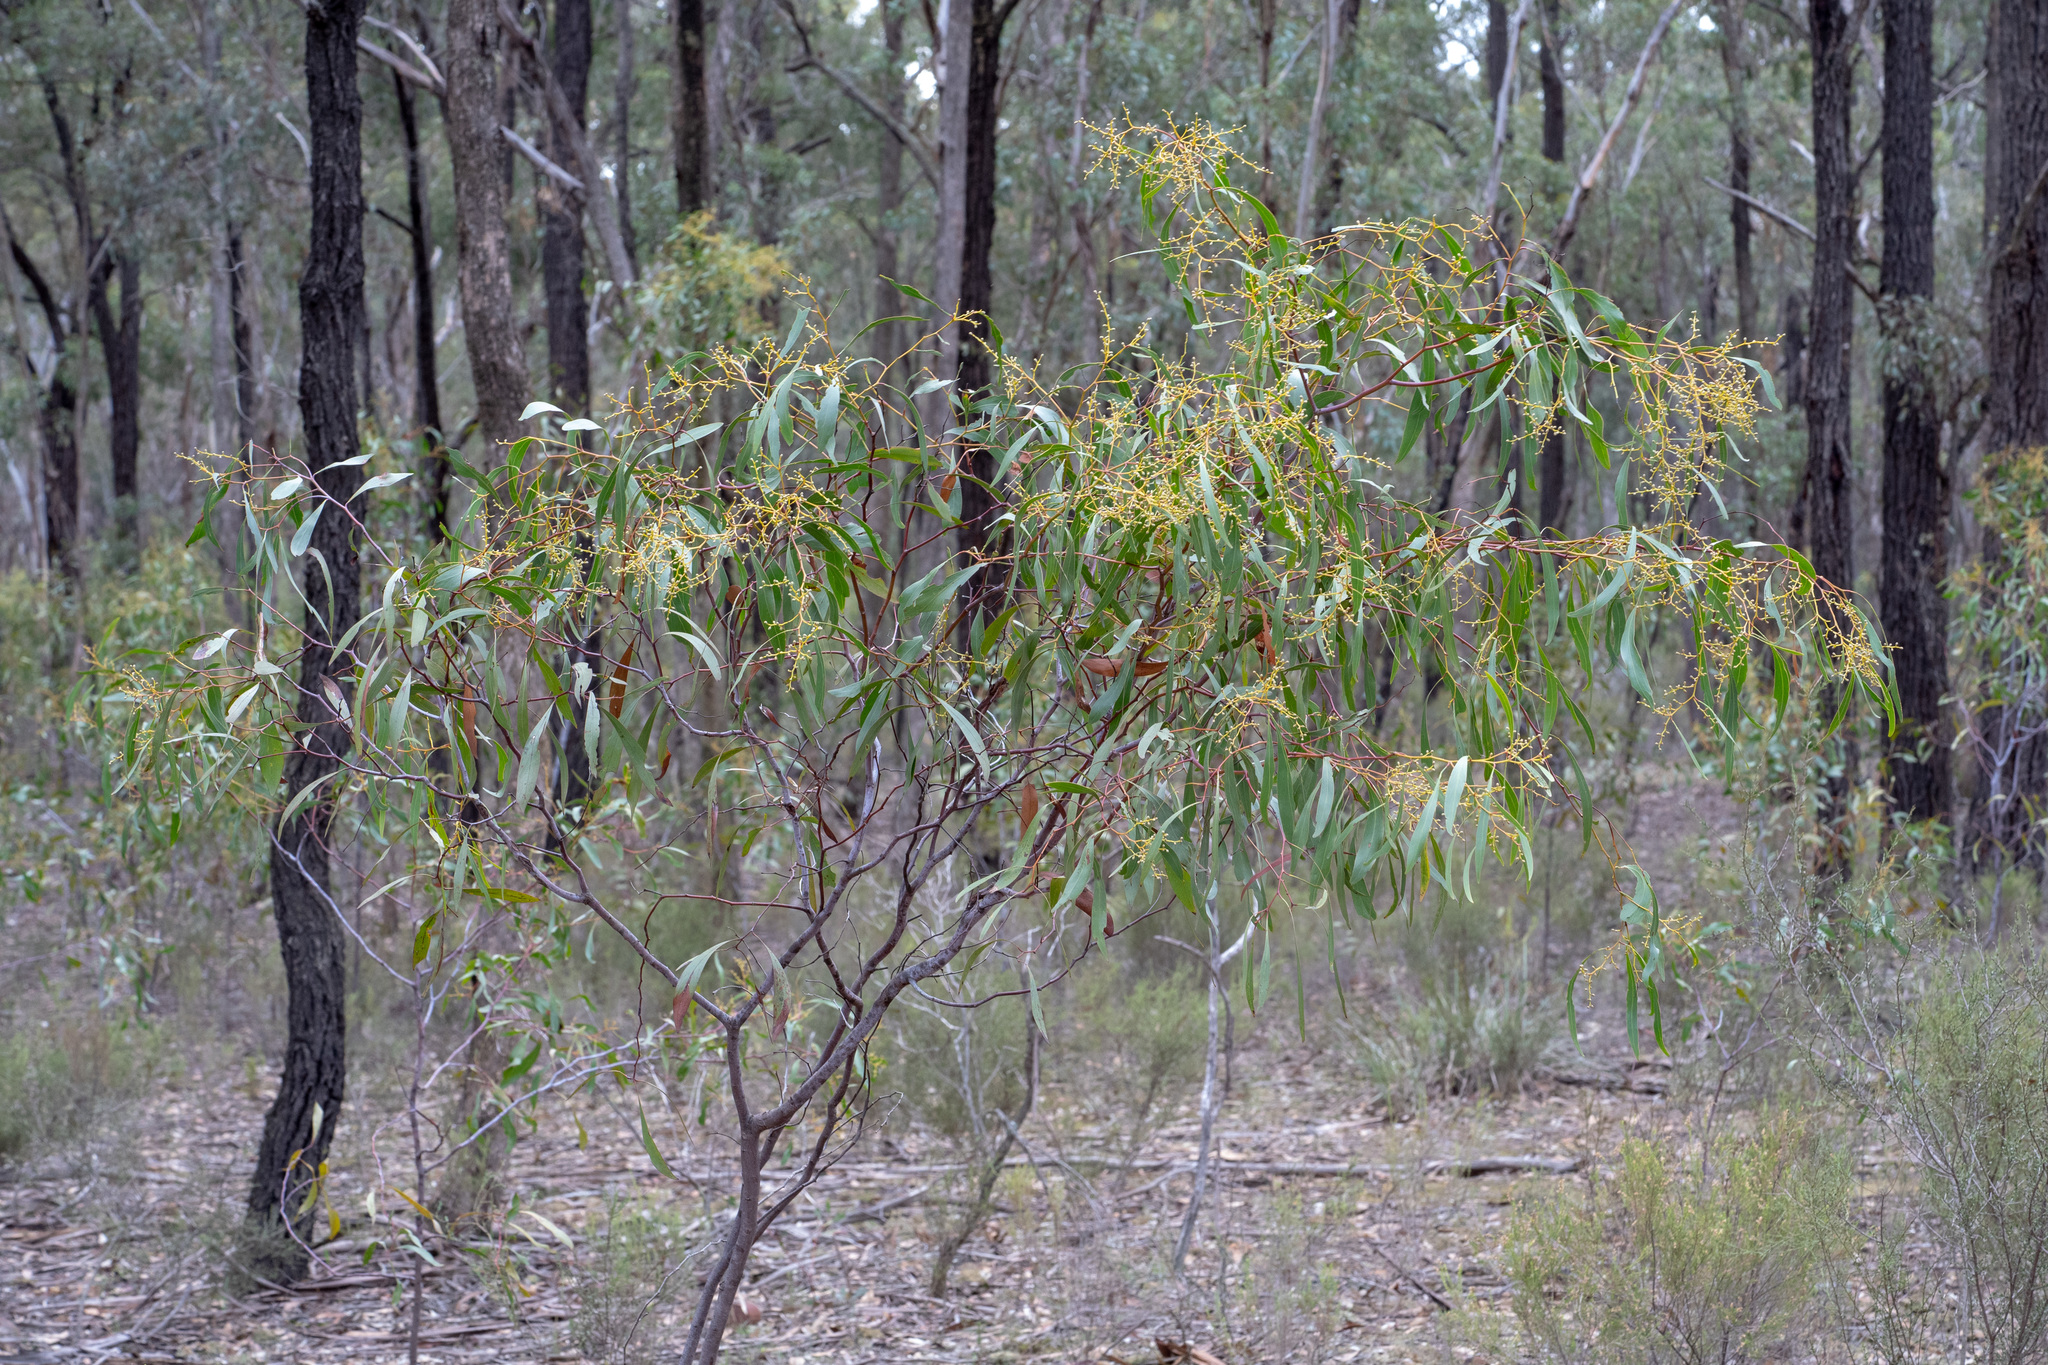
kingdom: Plantae
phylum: Tracheophyta
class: Magnoliopsida
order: Fabales
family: Fabaceae
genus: Acacia
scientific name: Acacia pycnantha
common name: Golden wattle
